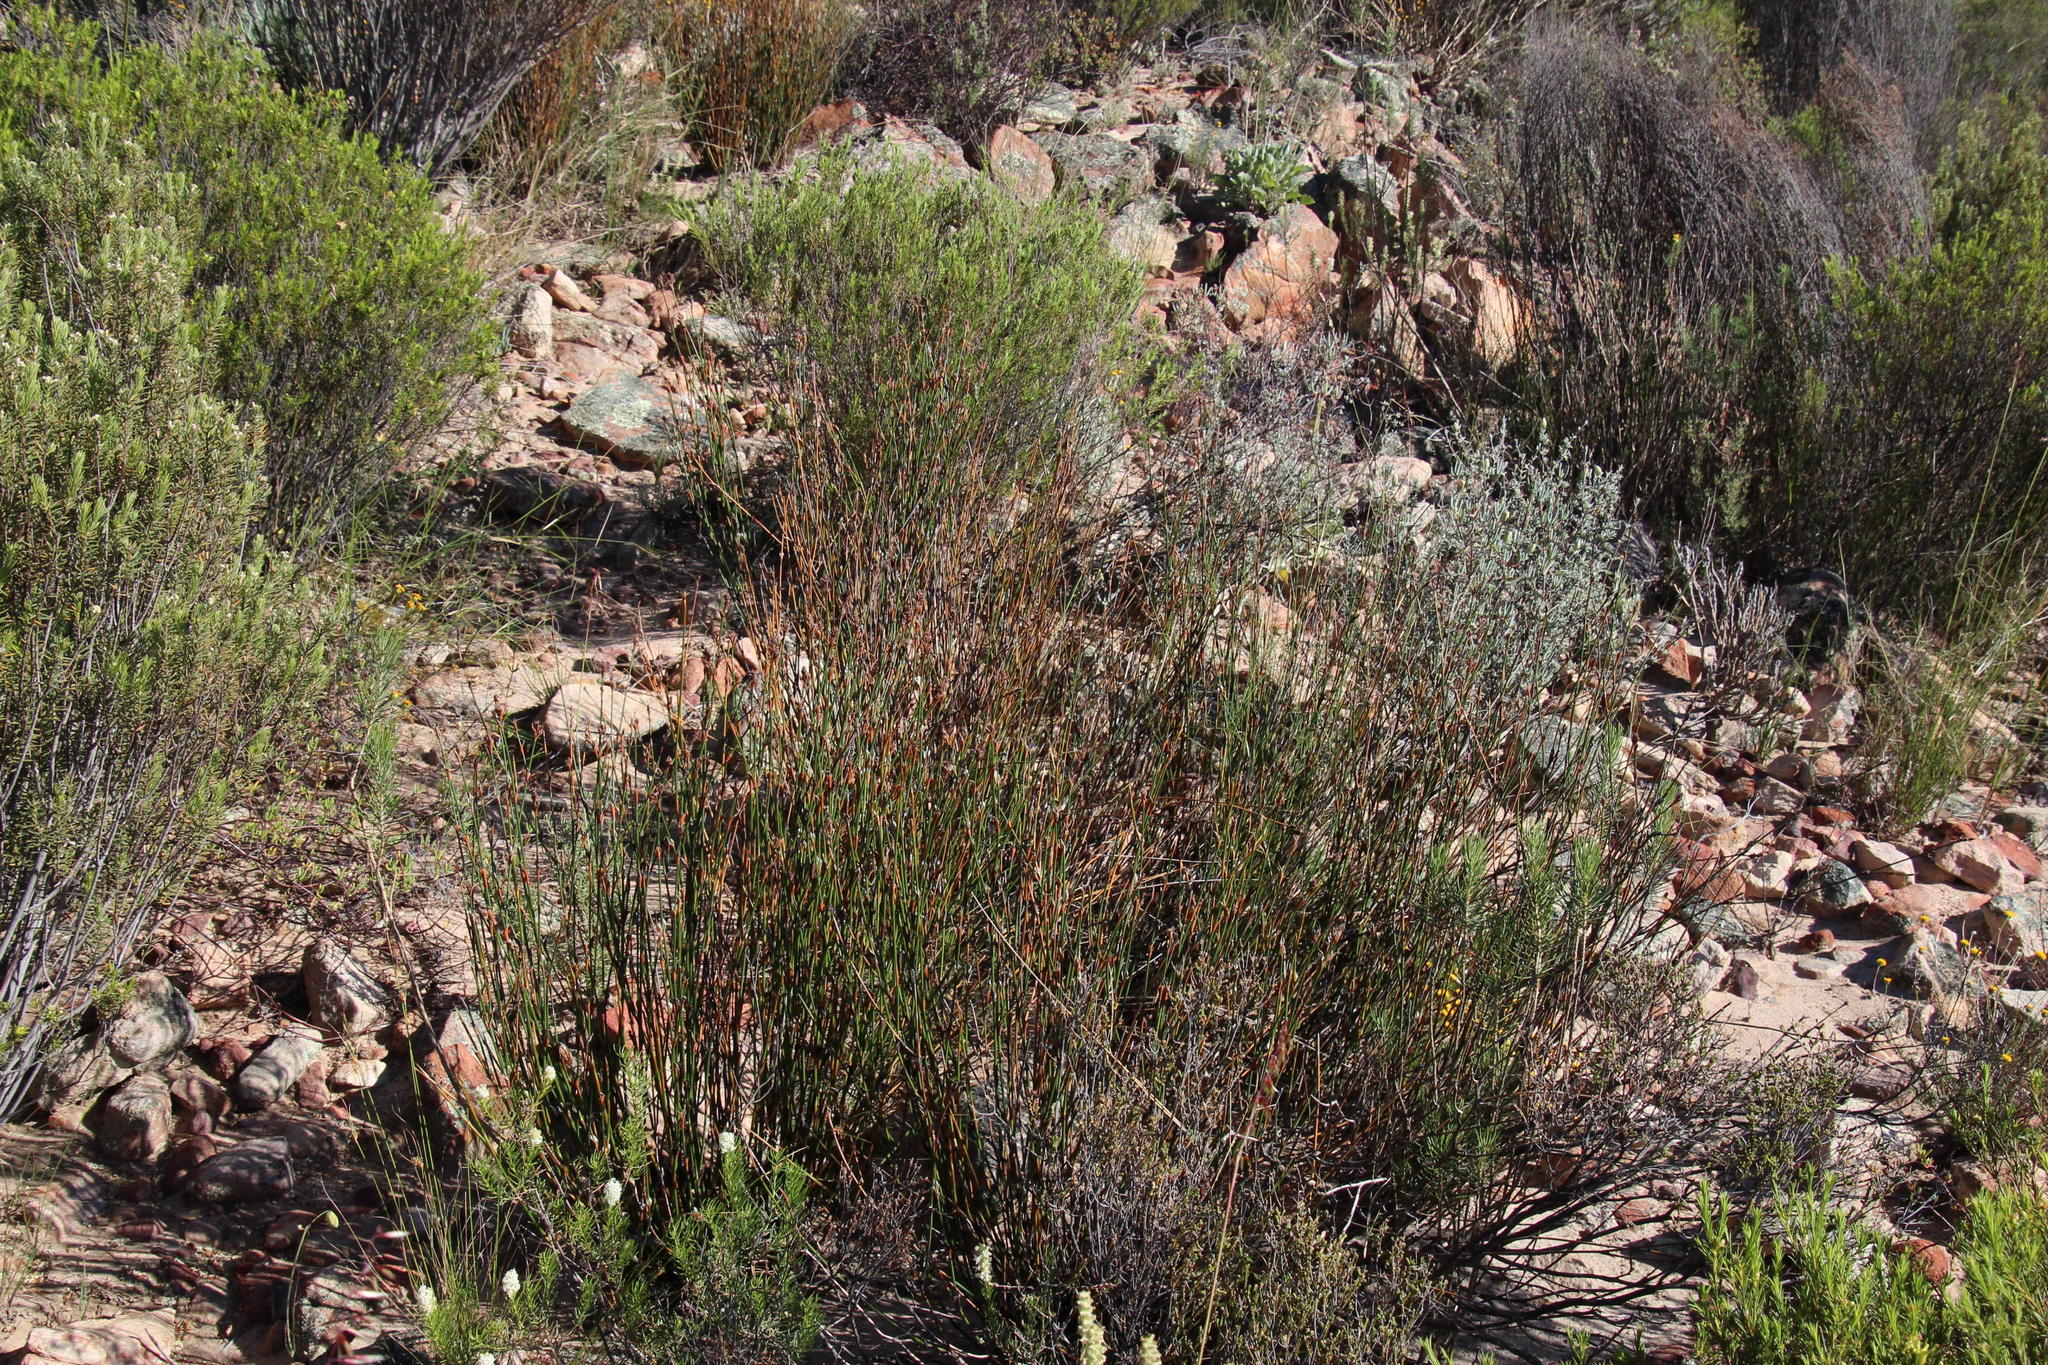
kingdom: Plantae
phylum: Tracheophyta
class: Liliopsida
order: Poales
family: Restionaceae
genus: Restio
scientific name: Restio ocreatus
